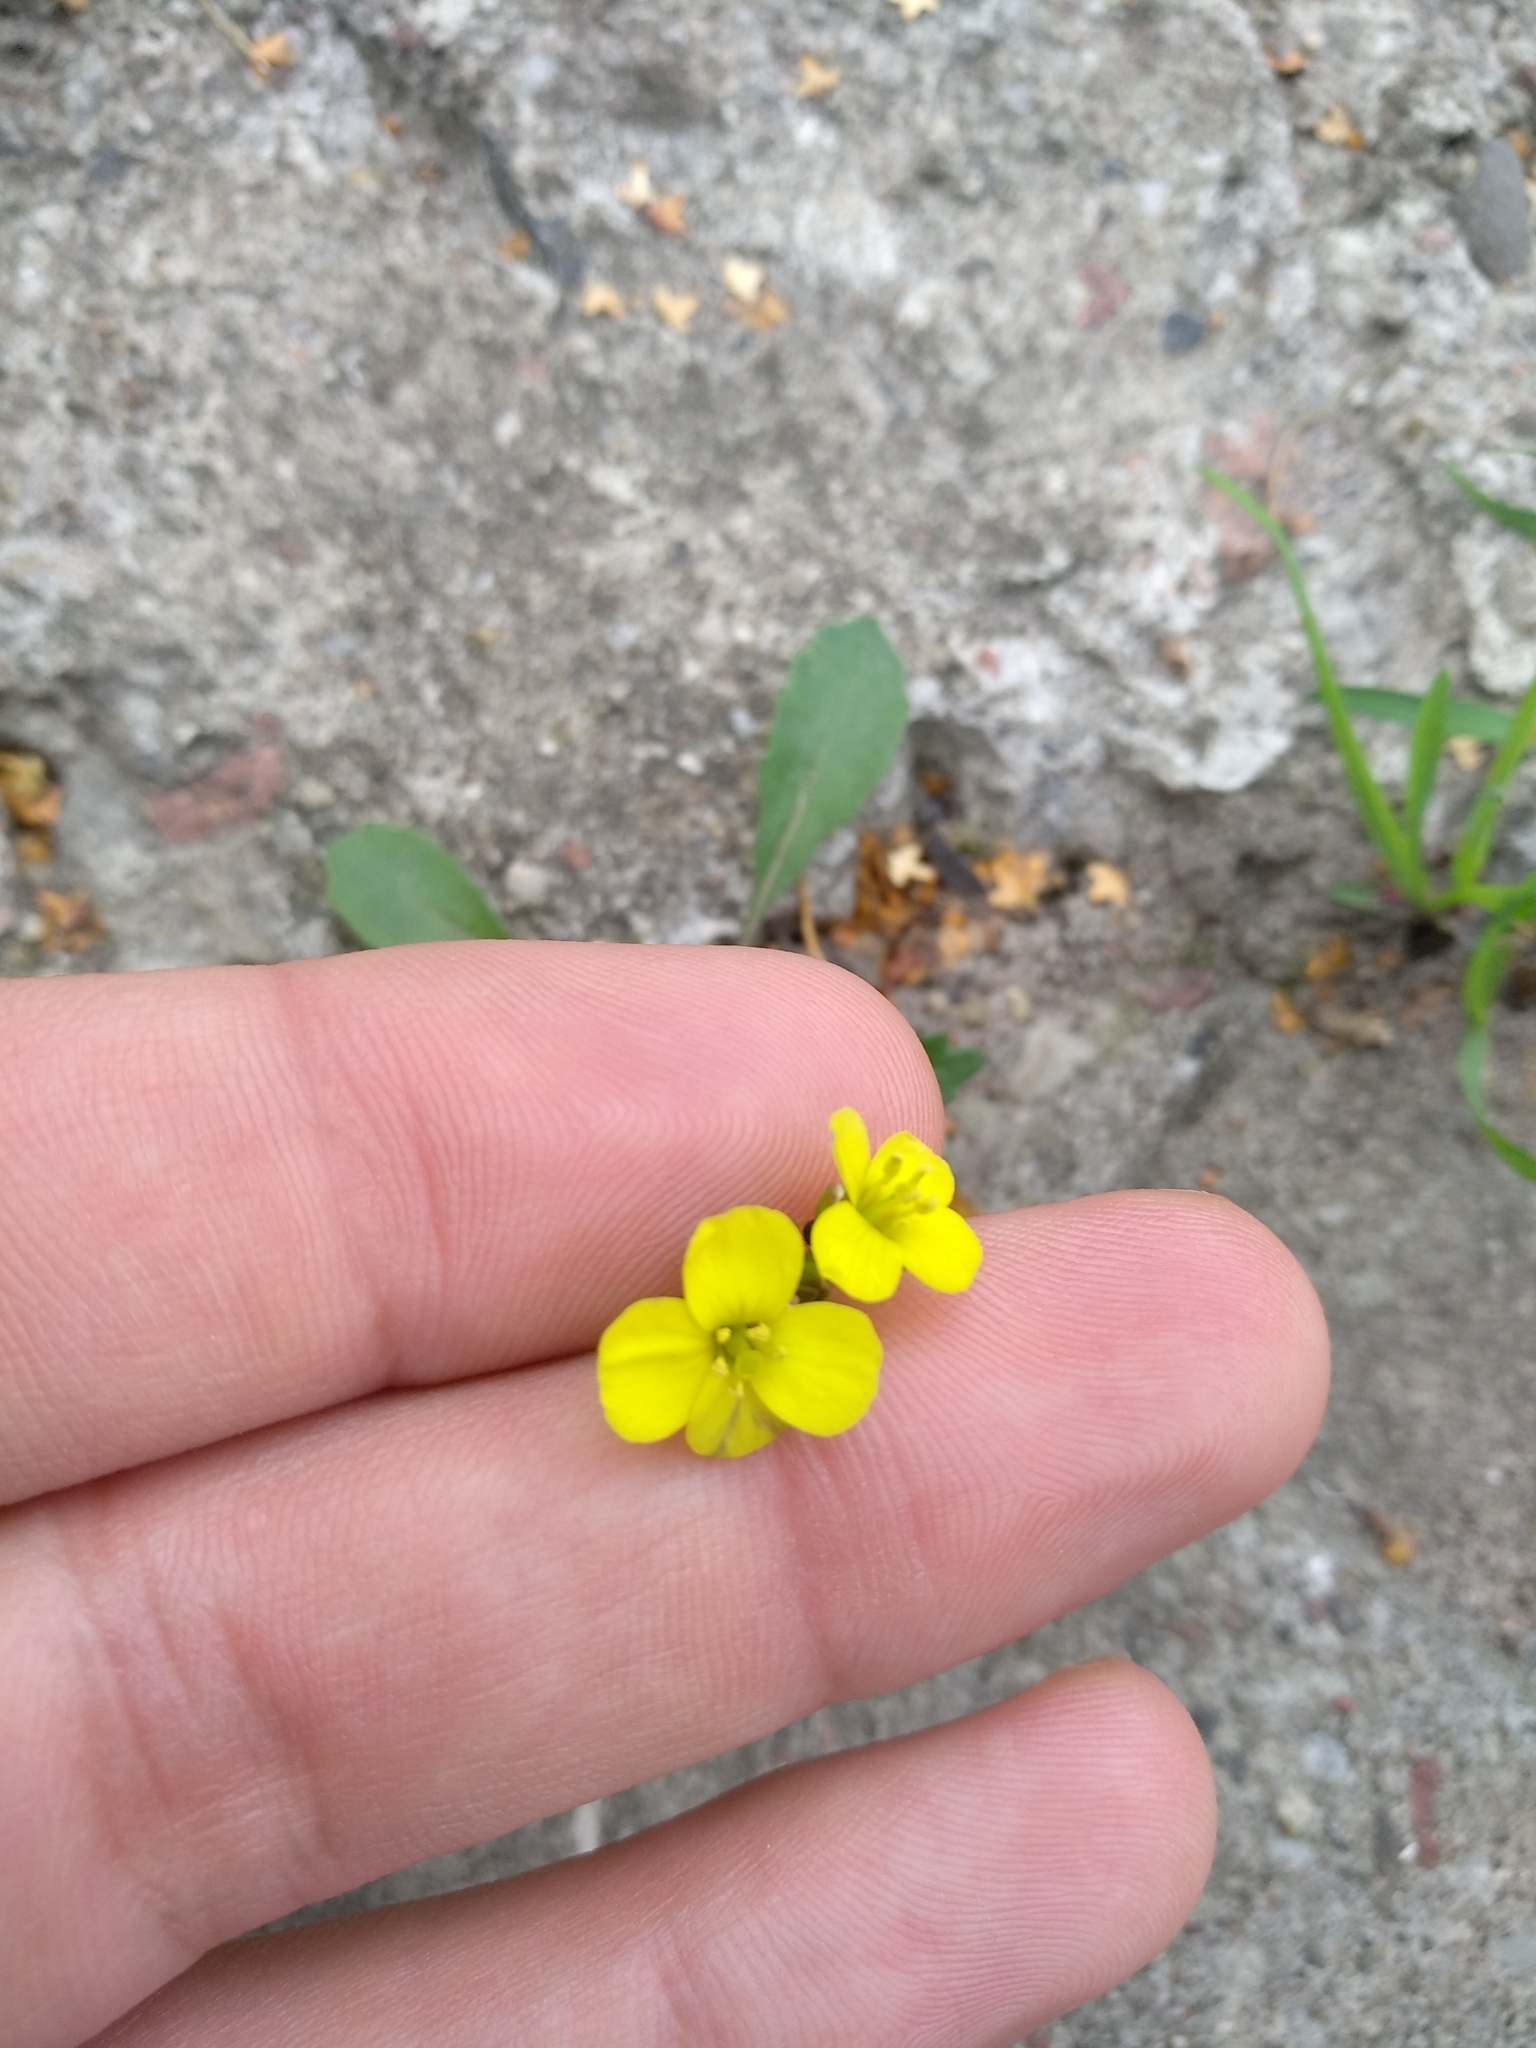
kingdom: Plantae
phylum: Tracheophyta
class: Magnoliopsida
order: Brassicales
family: Brassicaceae
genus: Diplotaxis
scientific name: Diplotaxis muralis
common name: Annual wall-rocket
